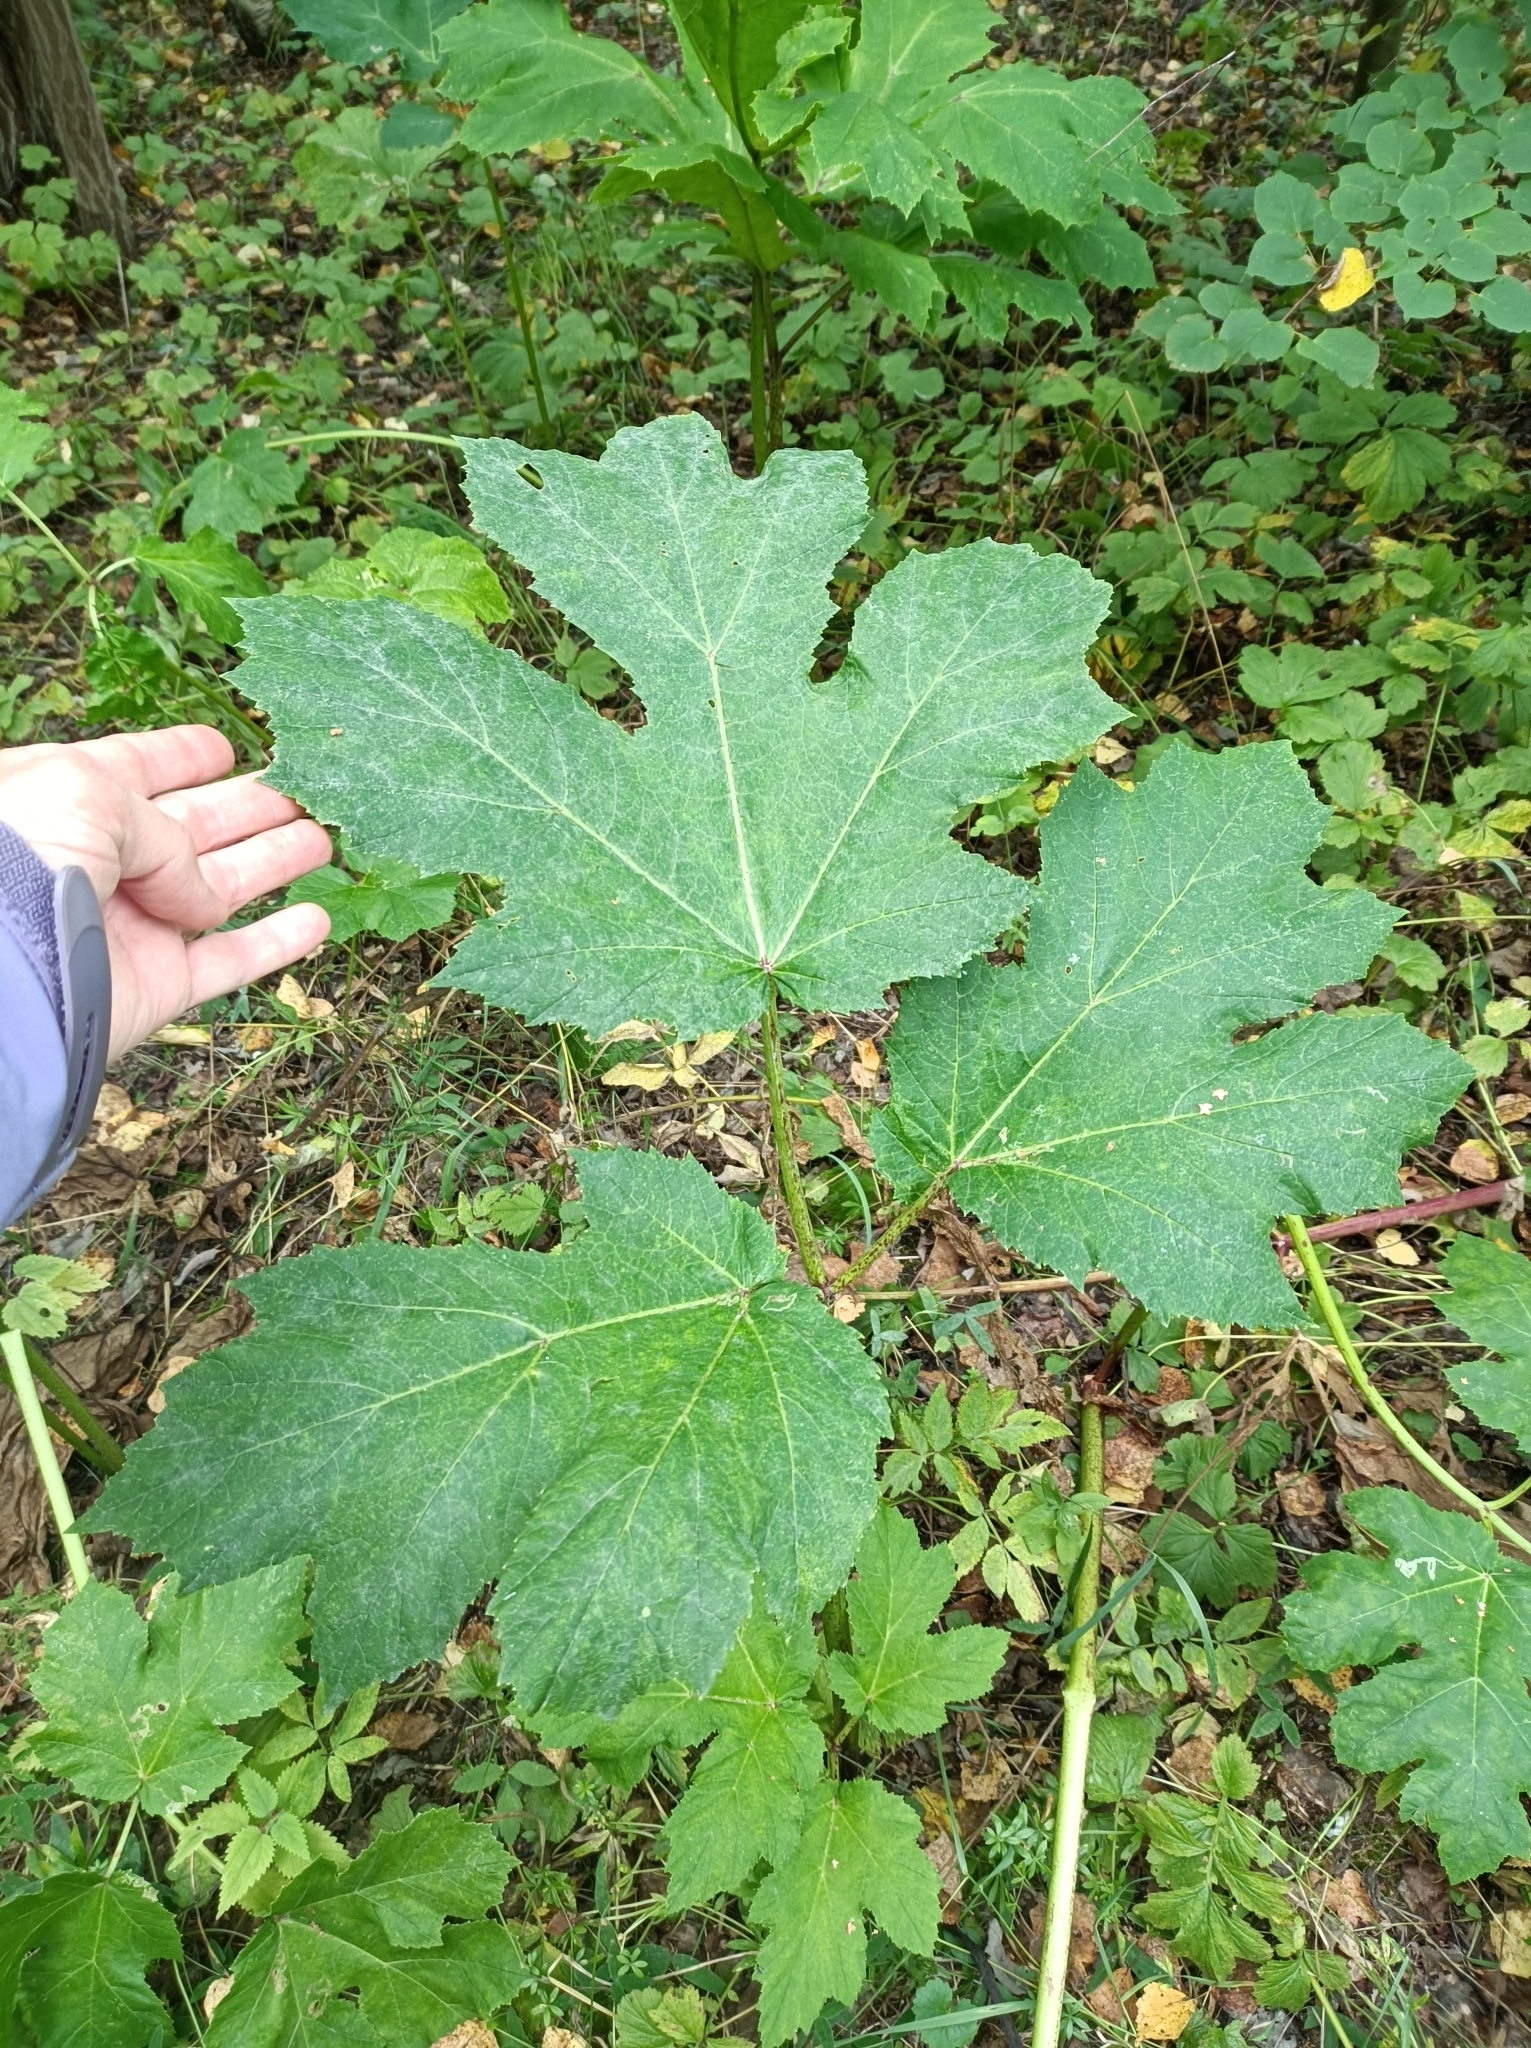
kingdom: Plantae
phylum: Tracheophyta
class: Magnoliopsida
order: Apiales
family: Apiaceae
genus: Heracleum
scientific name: Heracleum sosnowskyi
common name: Sosnowsky's hogweed
